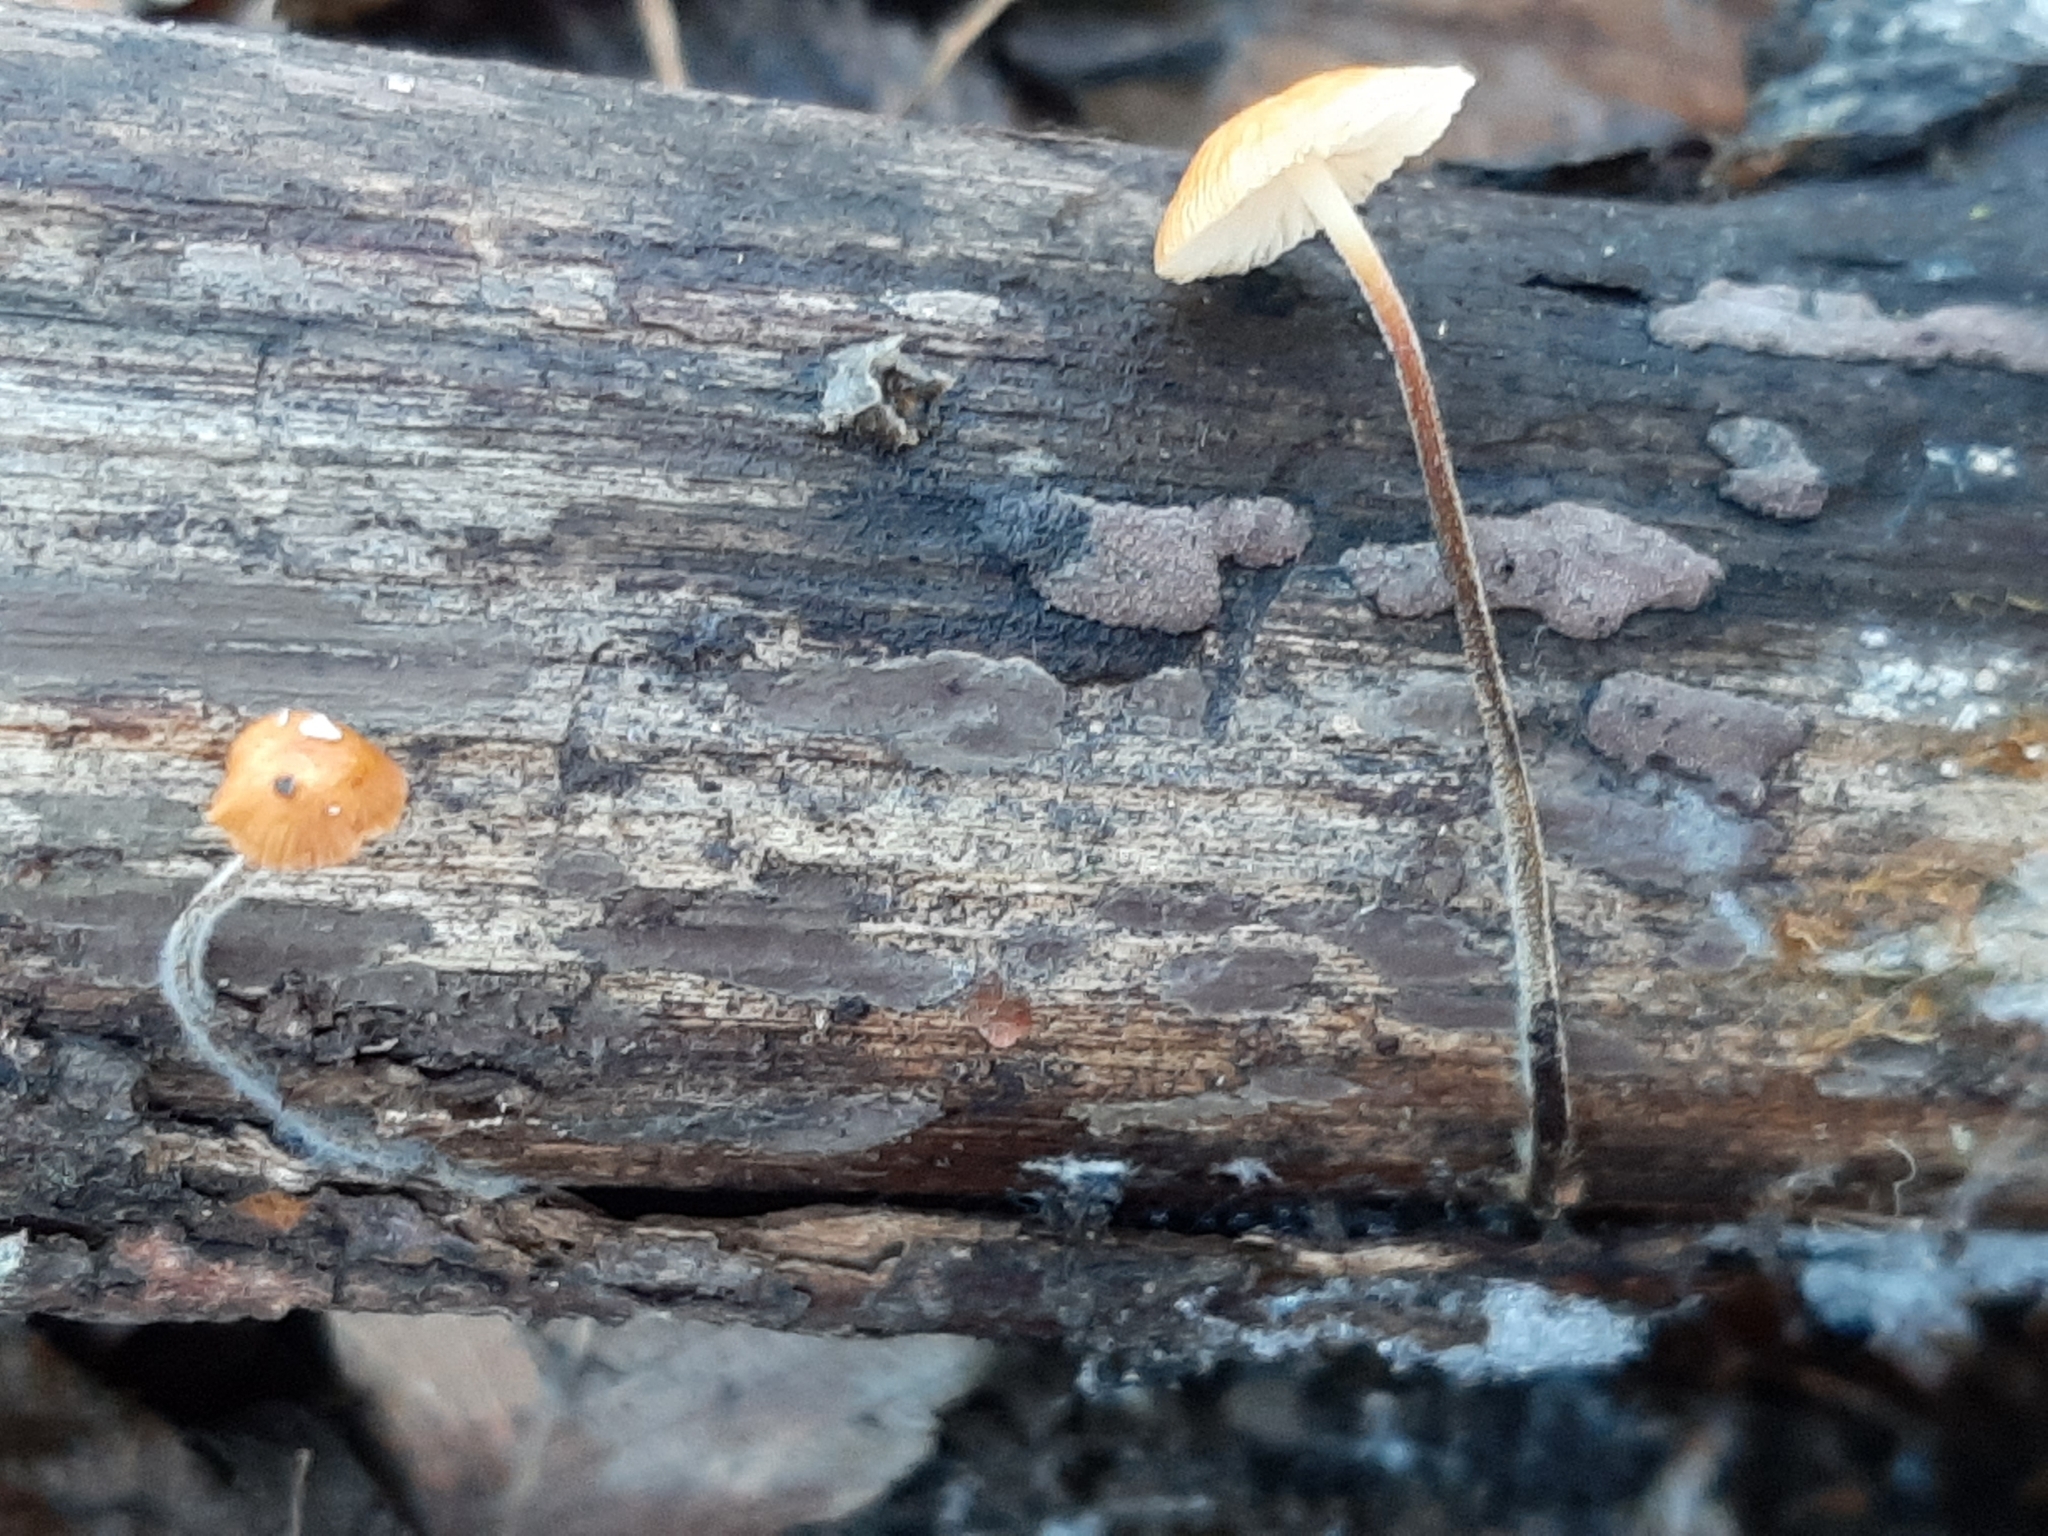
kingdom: Fungi
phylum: Basidiomycota
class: Agaricomycetes
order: Agaricales
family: Physalacriaceae
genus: Rhizomarasmius
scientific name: Rhizomarasmius pyrrhocephalus
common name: Hairy long stem marasmius
